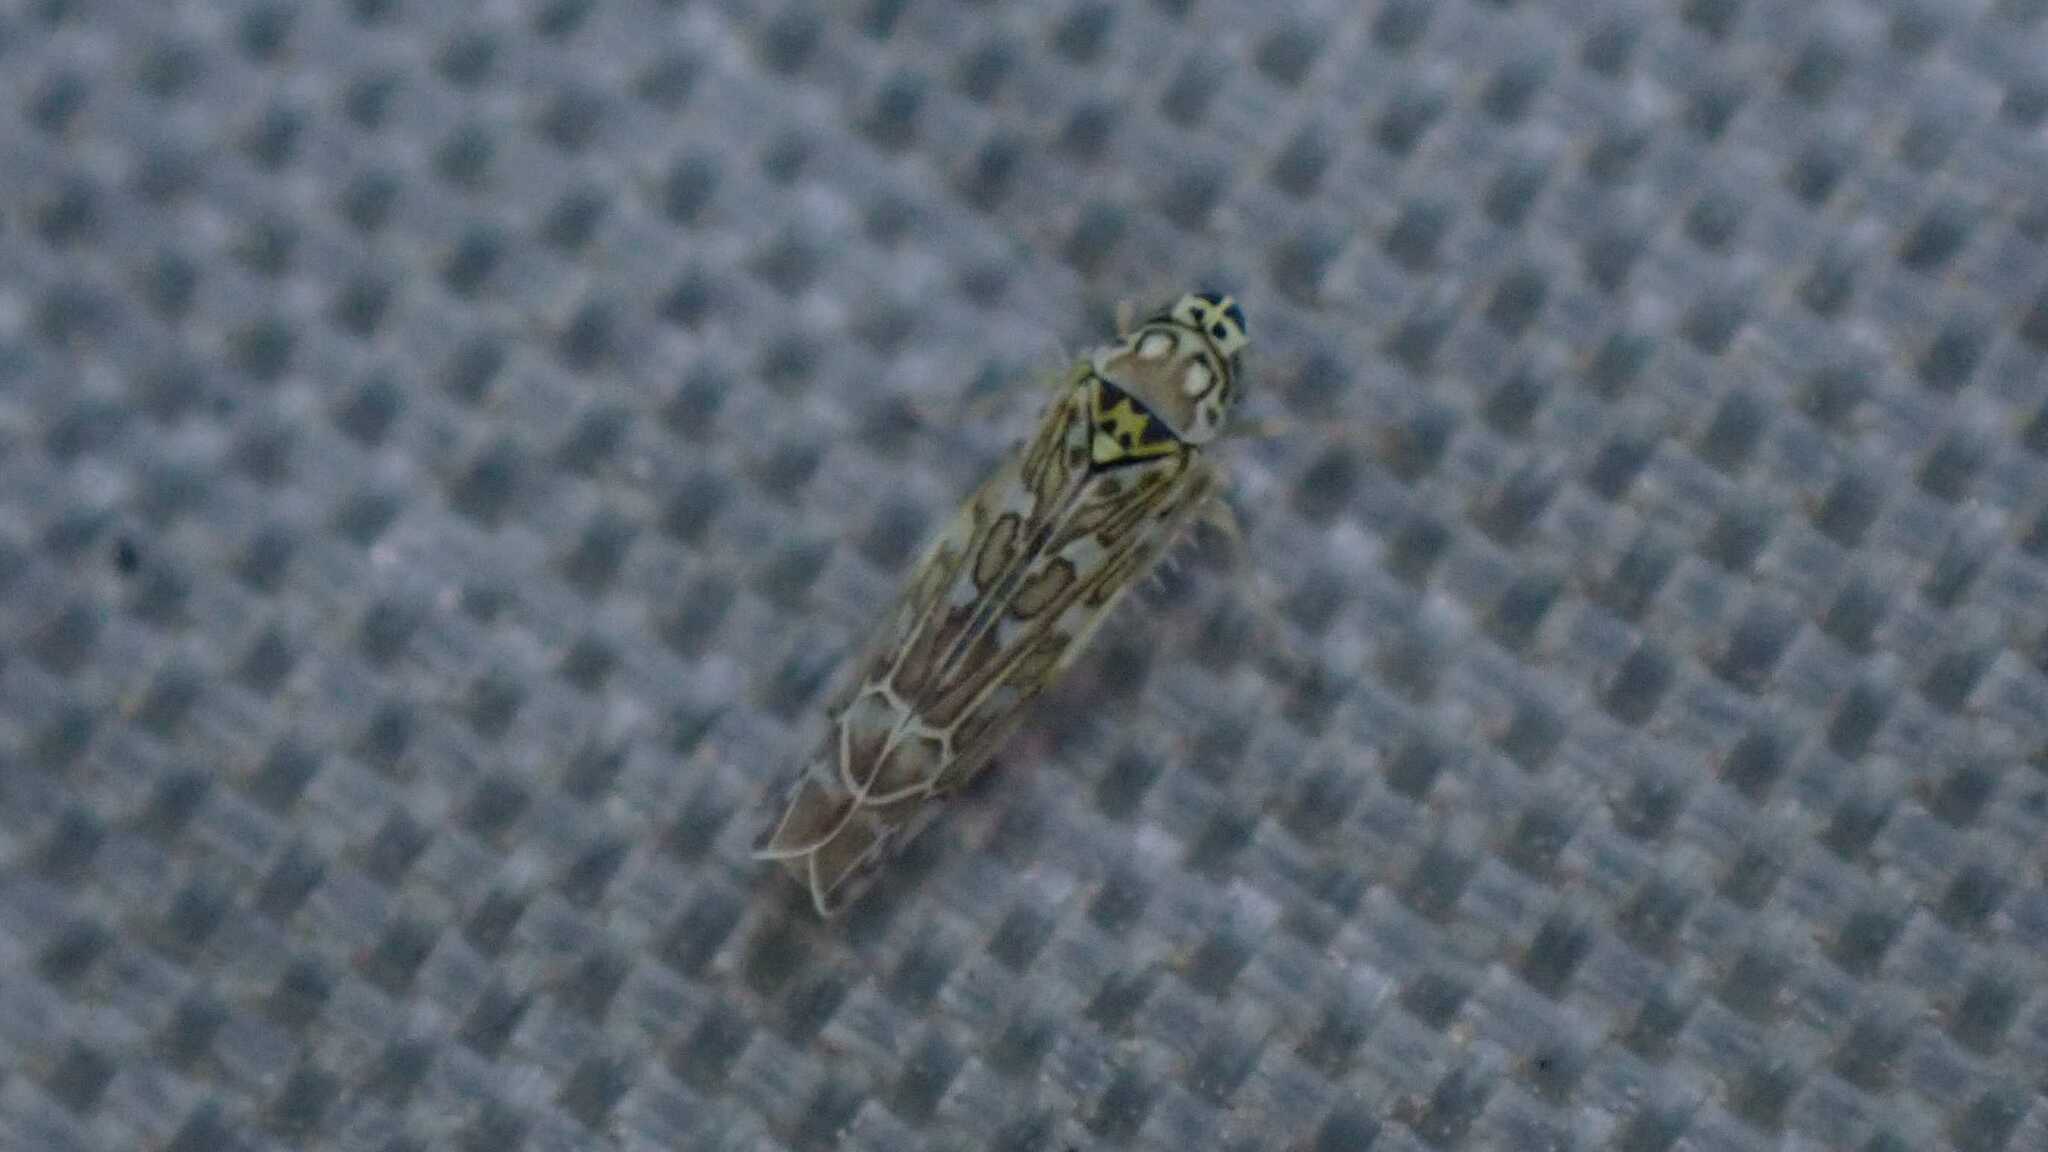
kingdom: Animalia
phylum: Arthropoda
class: Insecta
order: Hemiptera
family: Cicadellidae
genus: Eupteryx
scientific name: Eupteryx decemnotata
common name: Ligurian leafhopper
